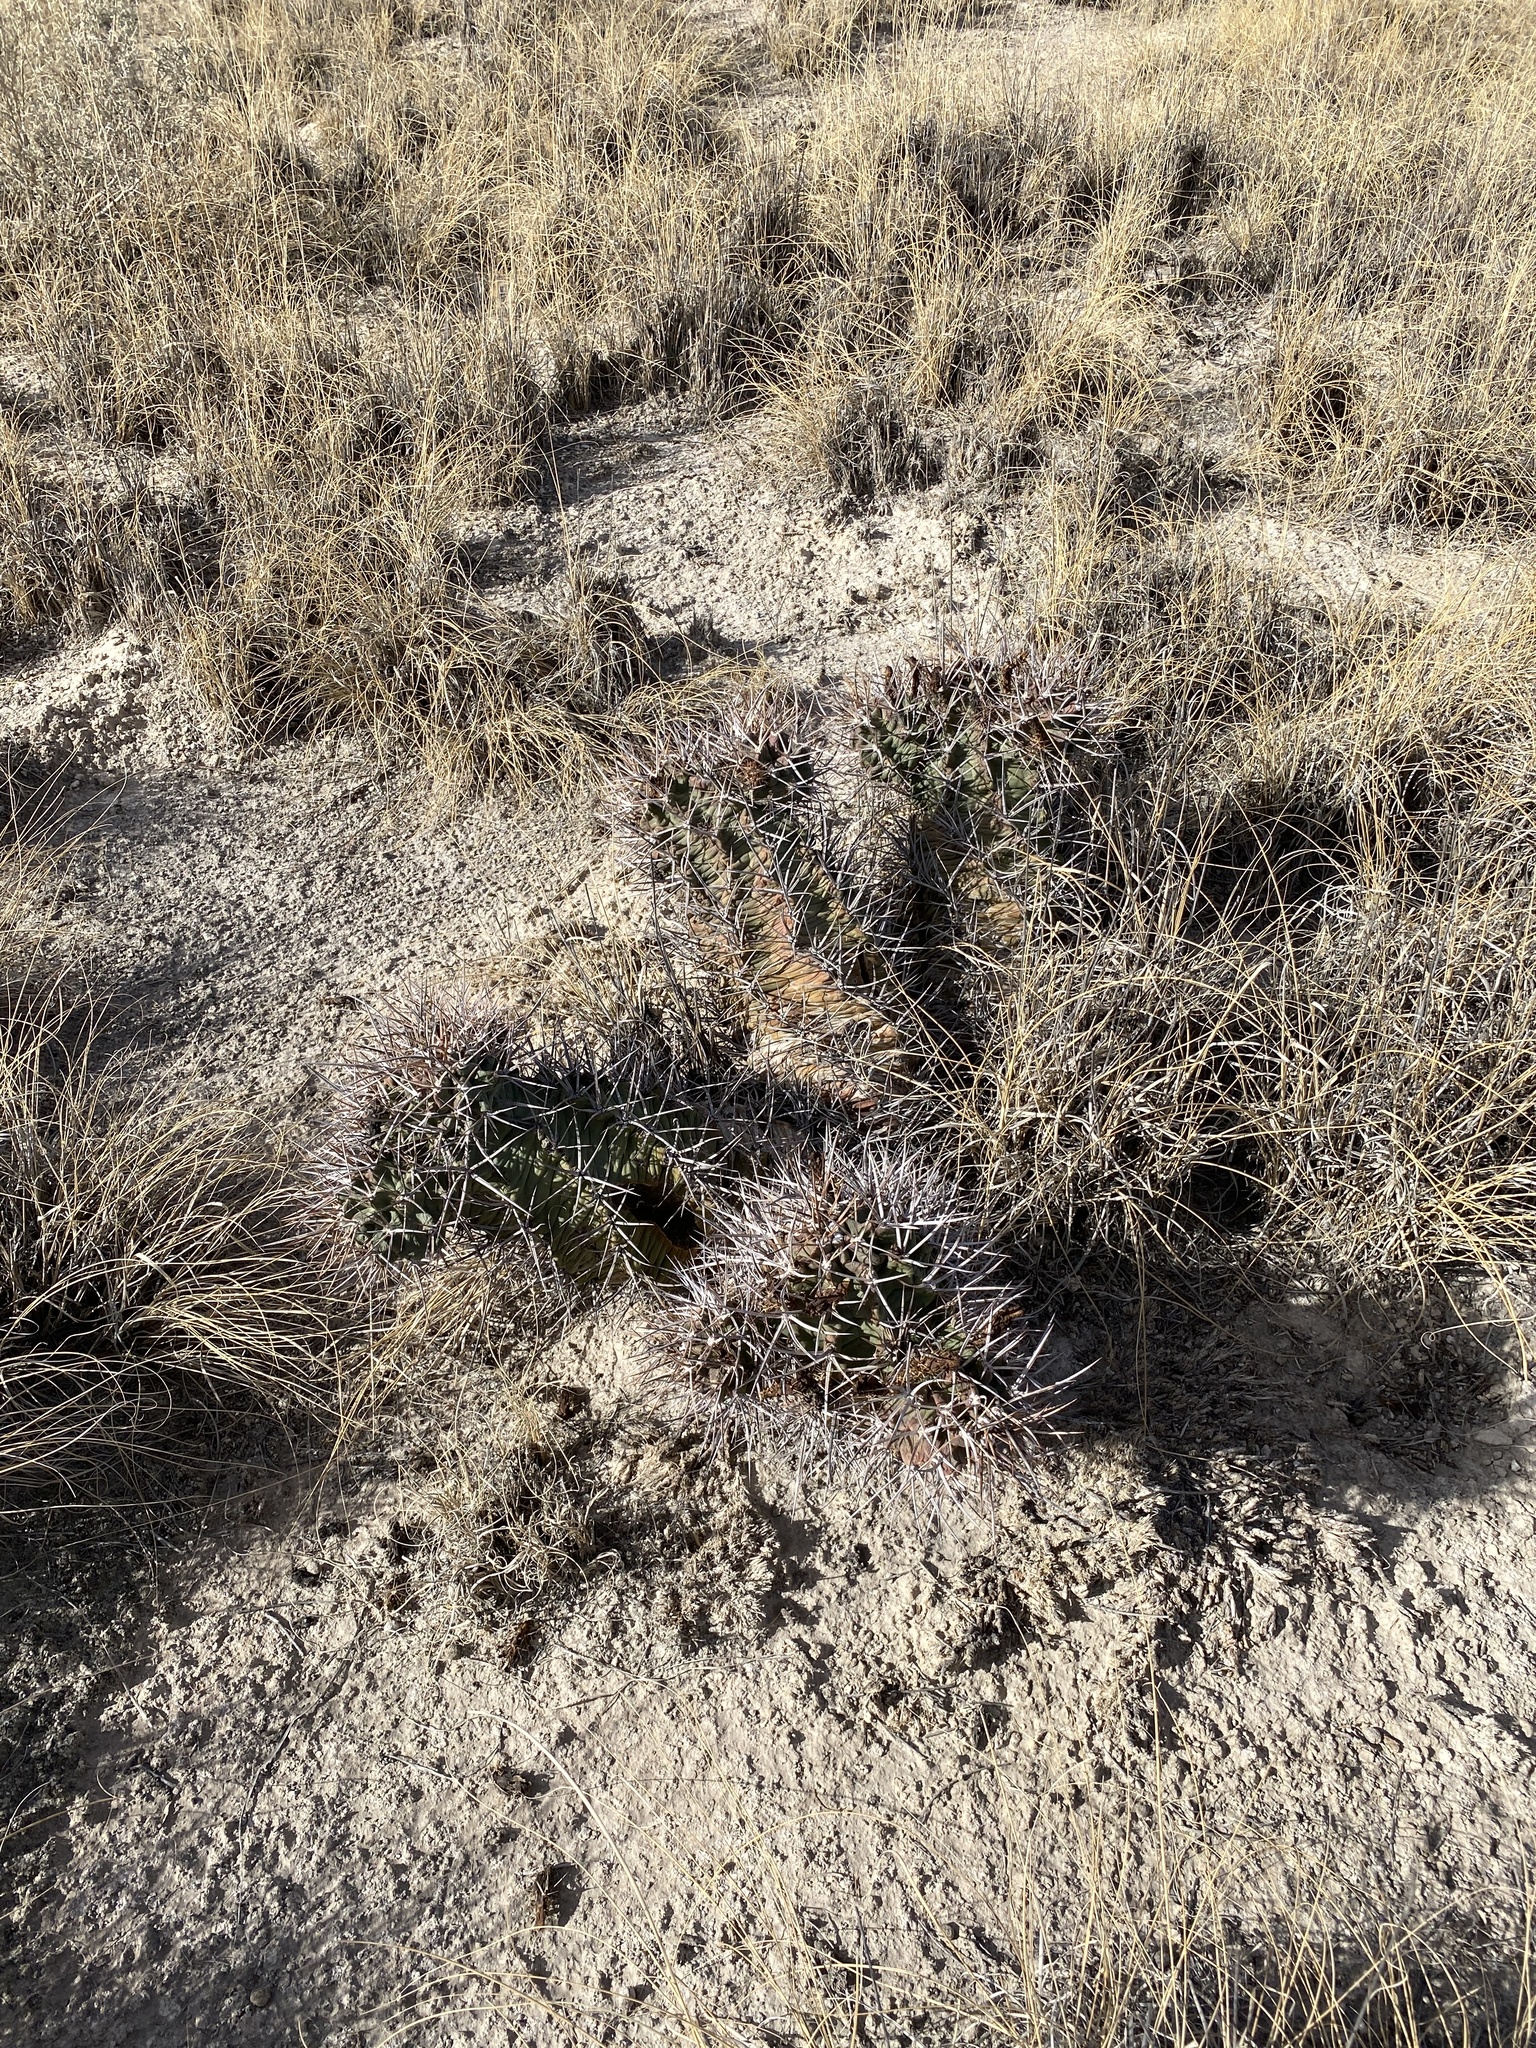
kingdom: Plantae
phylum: Tracheophyta
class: Magnoliopsida
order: Caryophyllales
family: Cactaceae
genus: Echinocereus
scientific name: Echinocereus triglochidiatus
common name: Claretcup hedgehog
